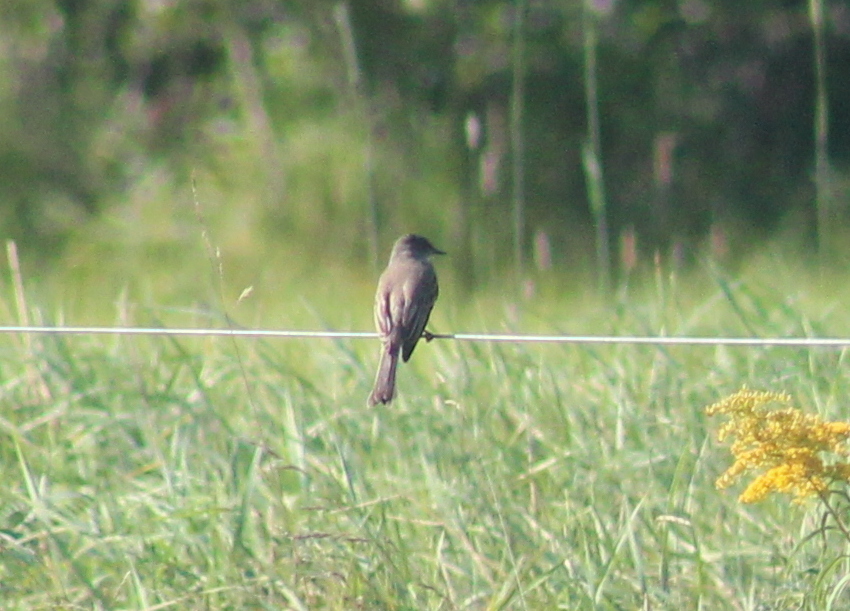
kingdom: Animalia
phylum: Chordata
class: Aves
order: Passeriformes
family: Tyrannidae
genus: Sayornis
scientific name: Sayornis phoebe
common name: Eastern phoebe
